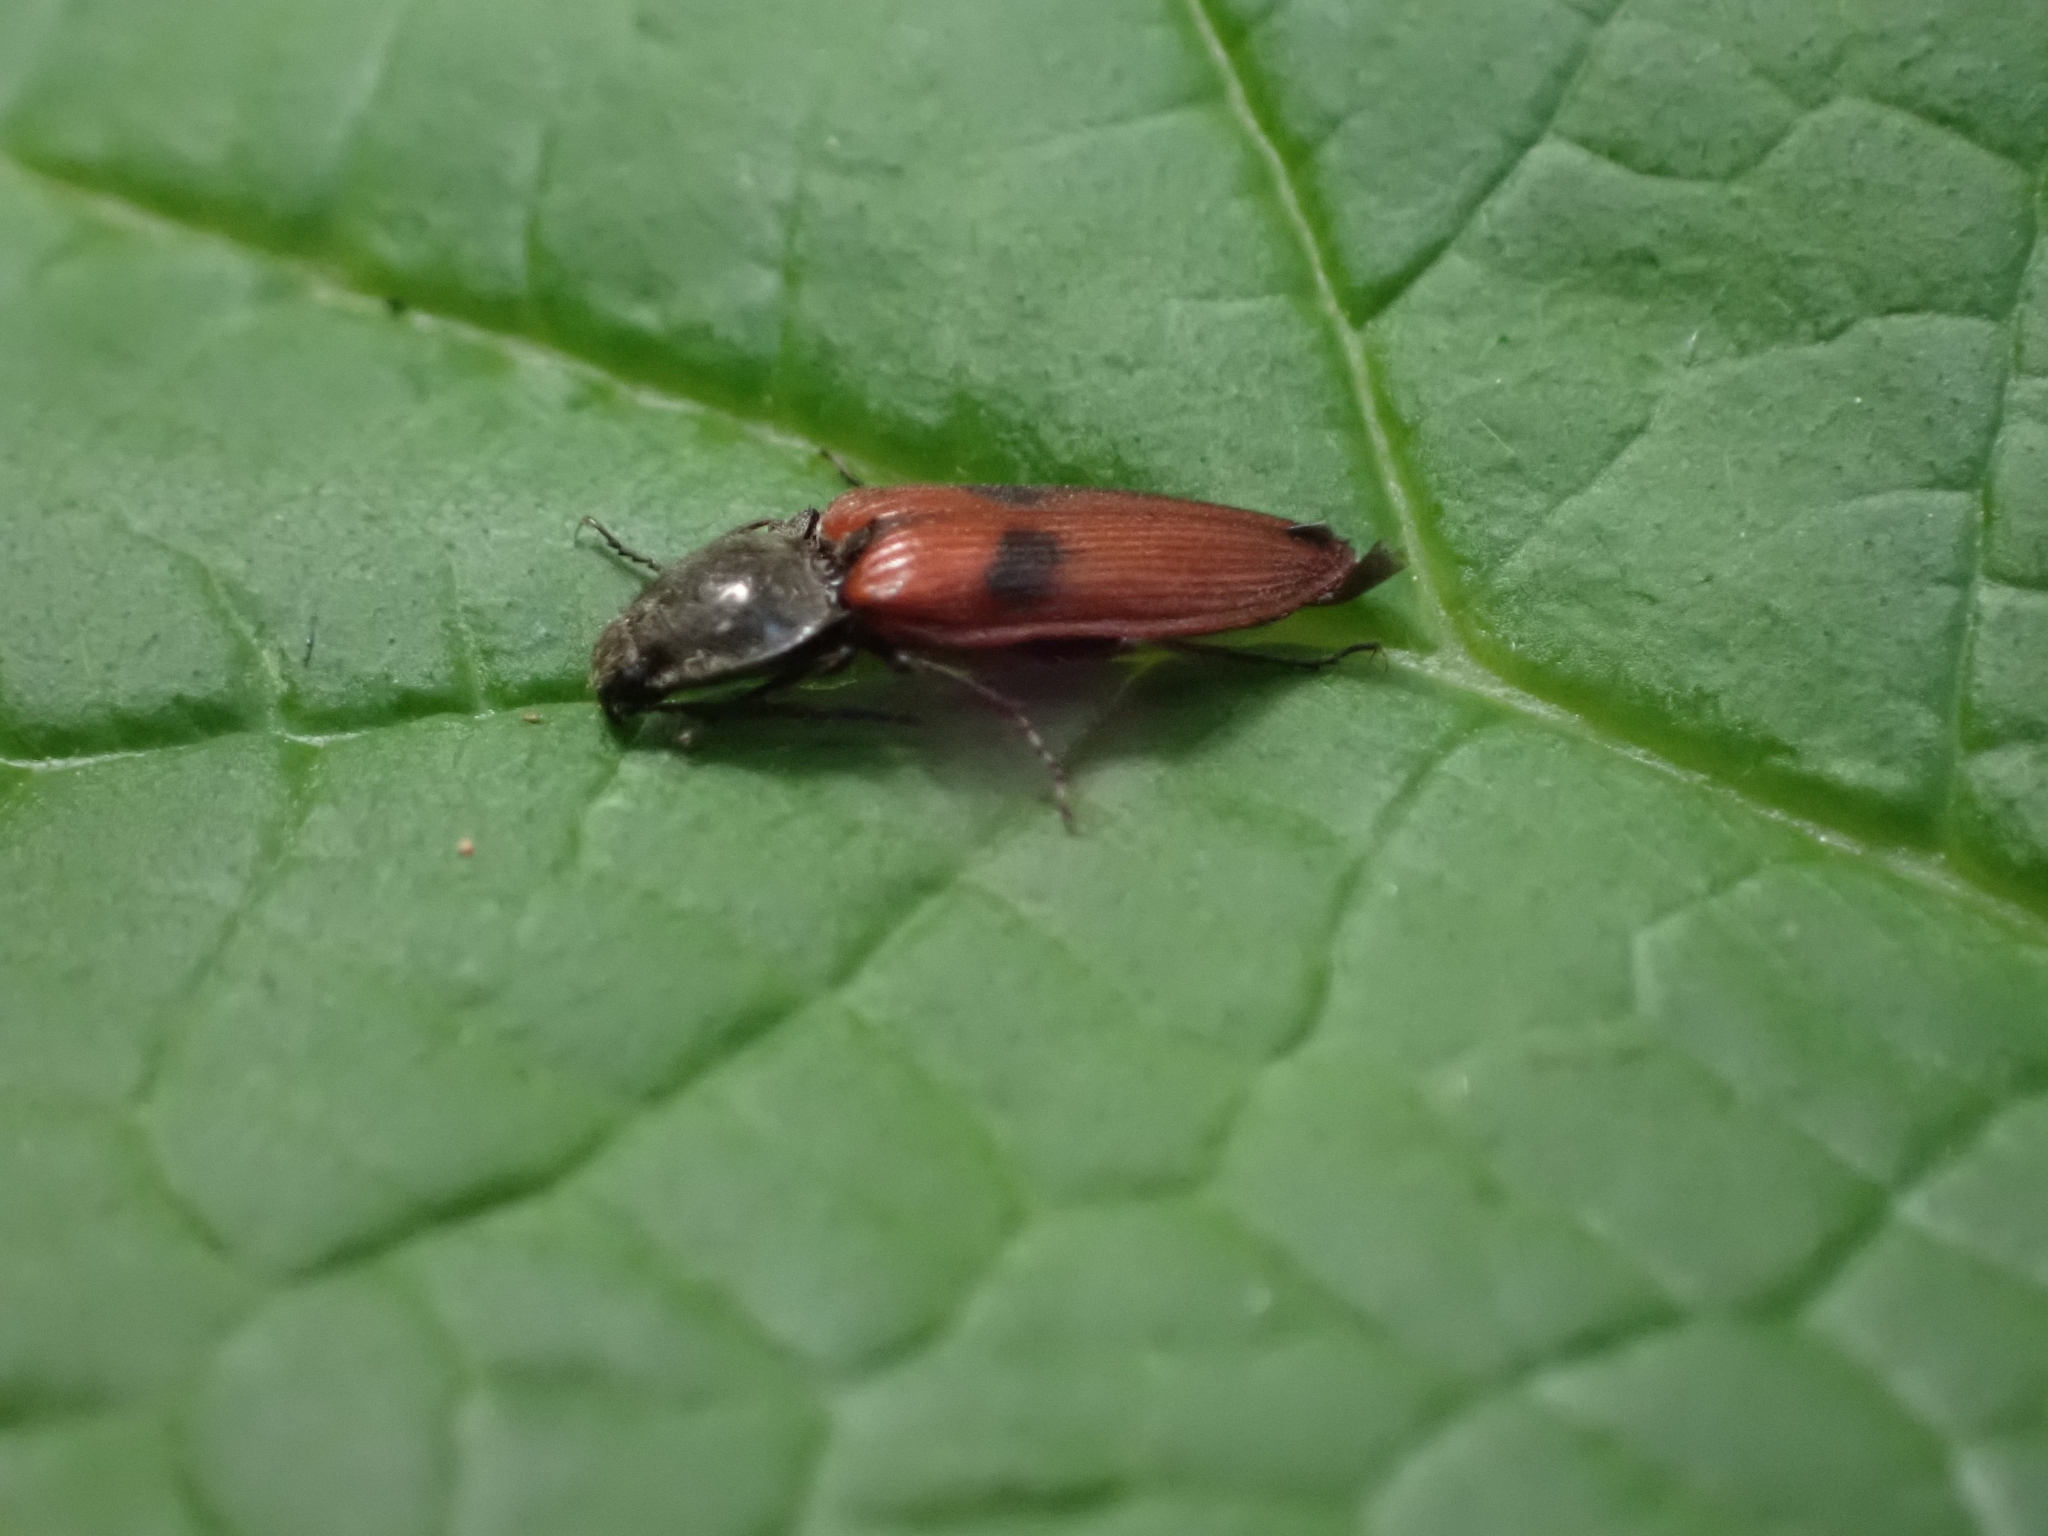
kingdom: Animalia
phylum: Arthropoda
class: Insecta
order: Coleoptera
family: Elateridae
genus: Anostirus
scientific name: Anostirus bipunctatus
